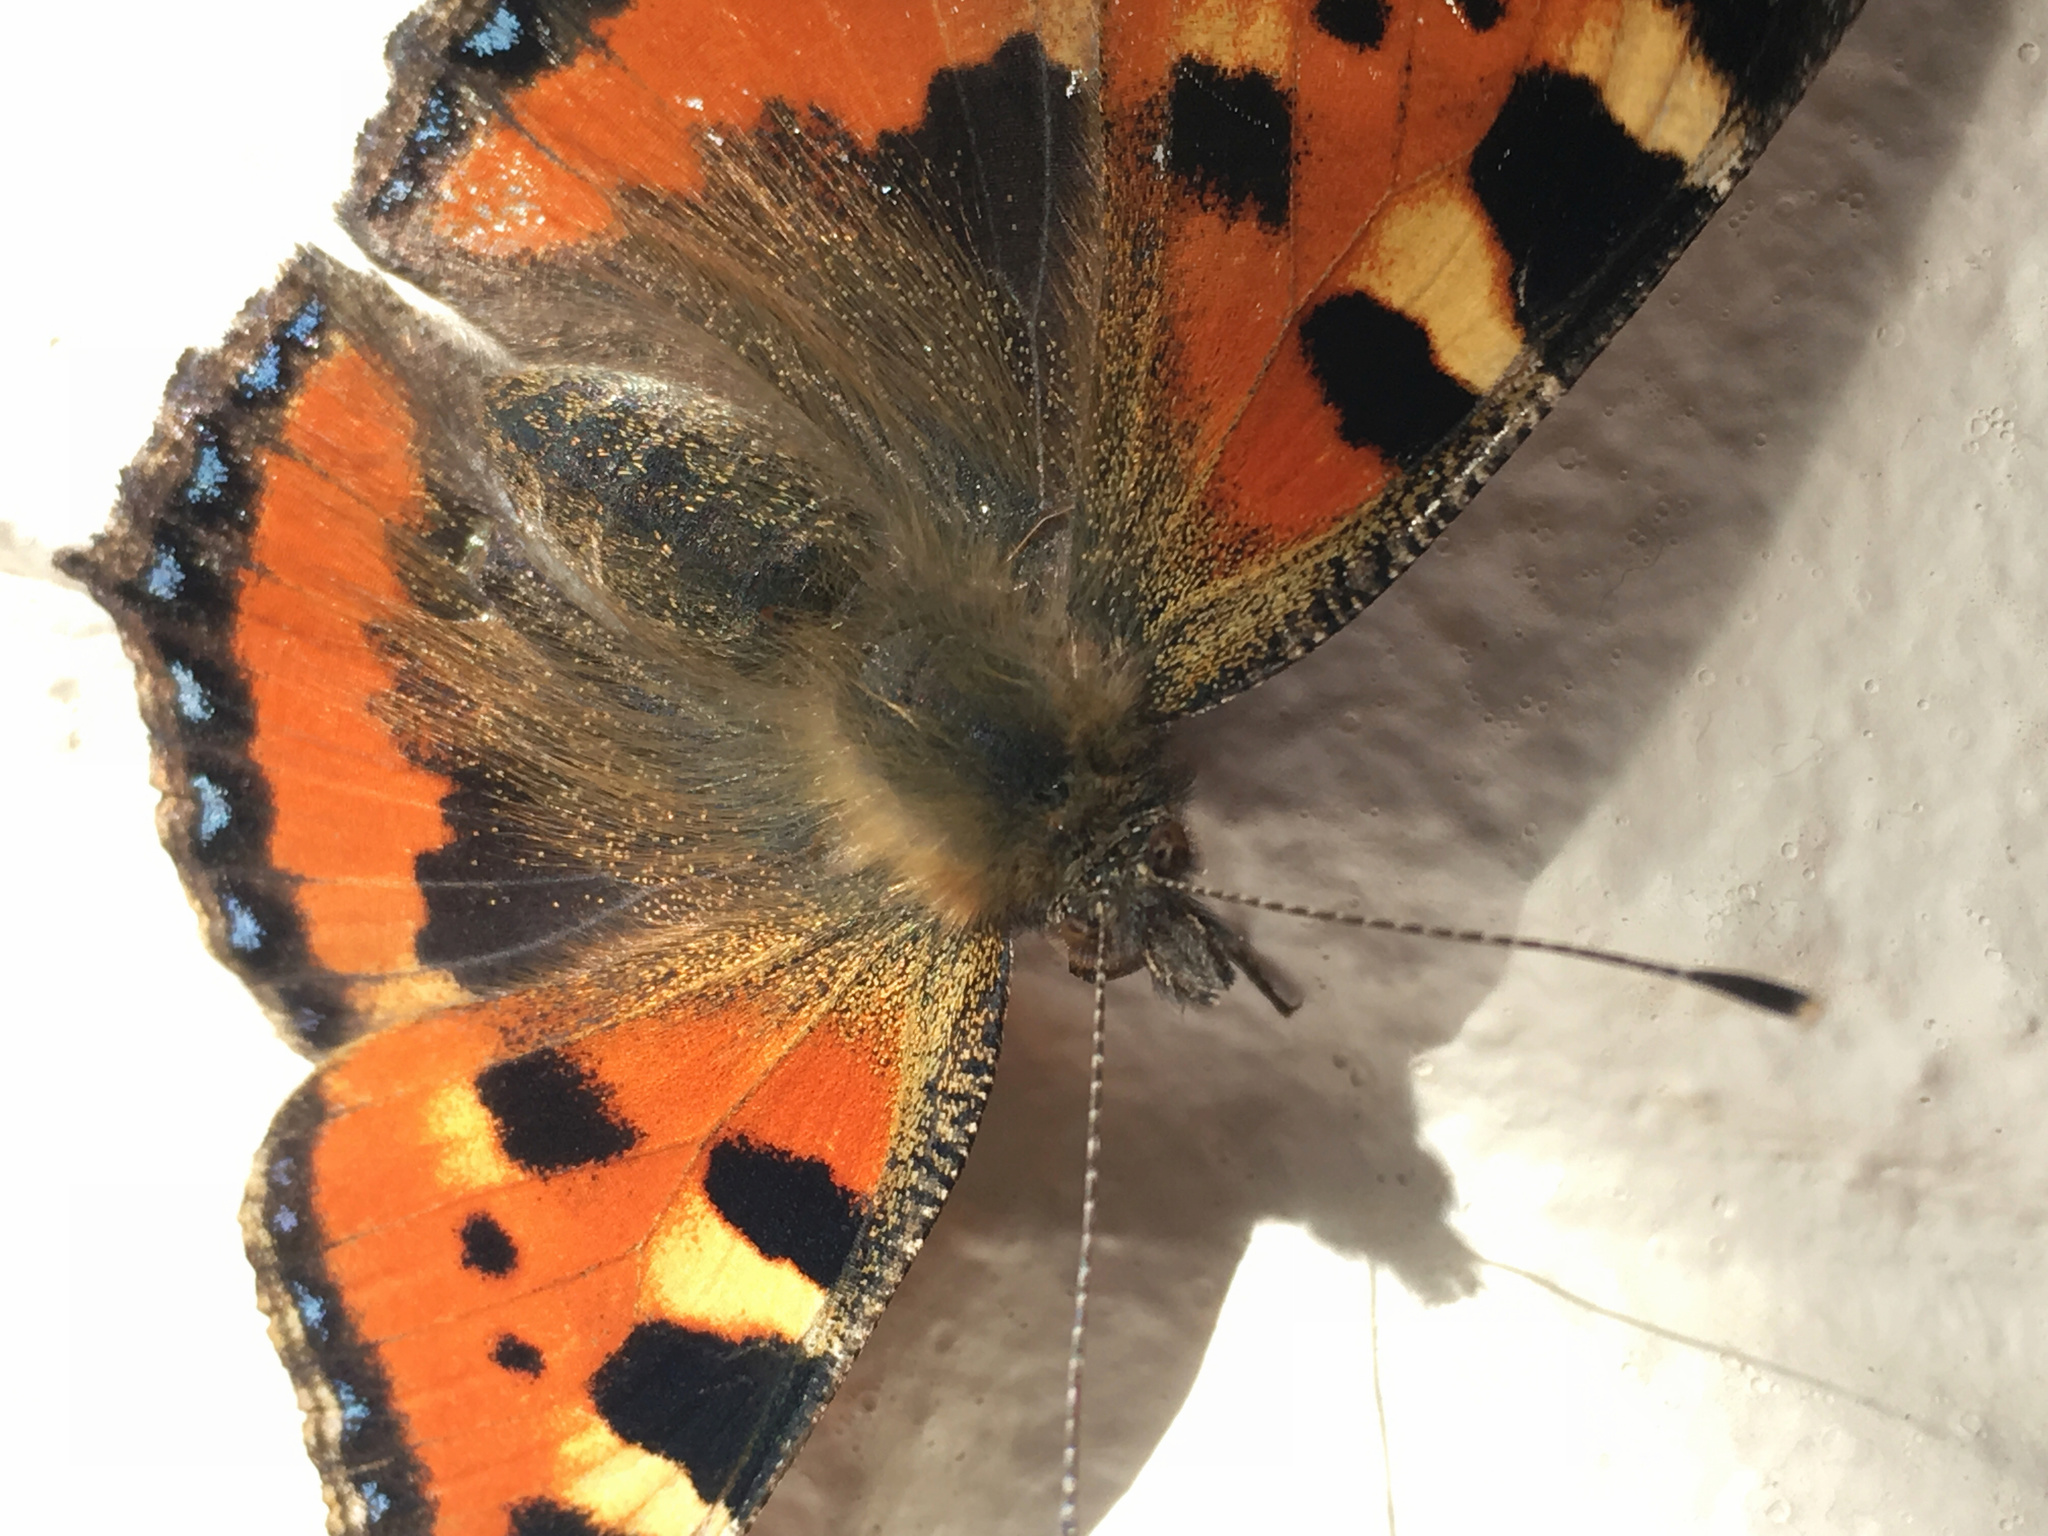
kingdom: Animalia
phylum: Arthropoda
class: Insecta
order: Lepidoptera
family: Nymphalidae
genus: Aglais
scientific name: Aglais urticae
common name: Small tortoiseshell
